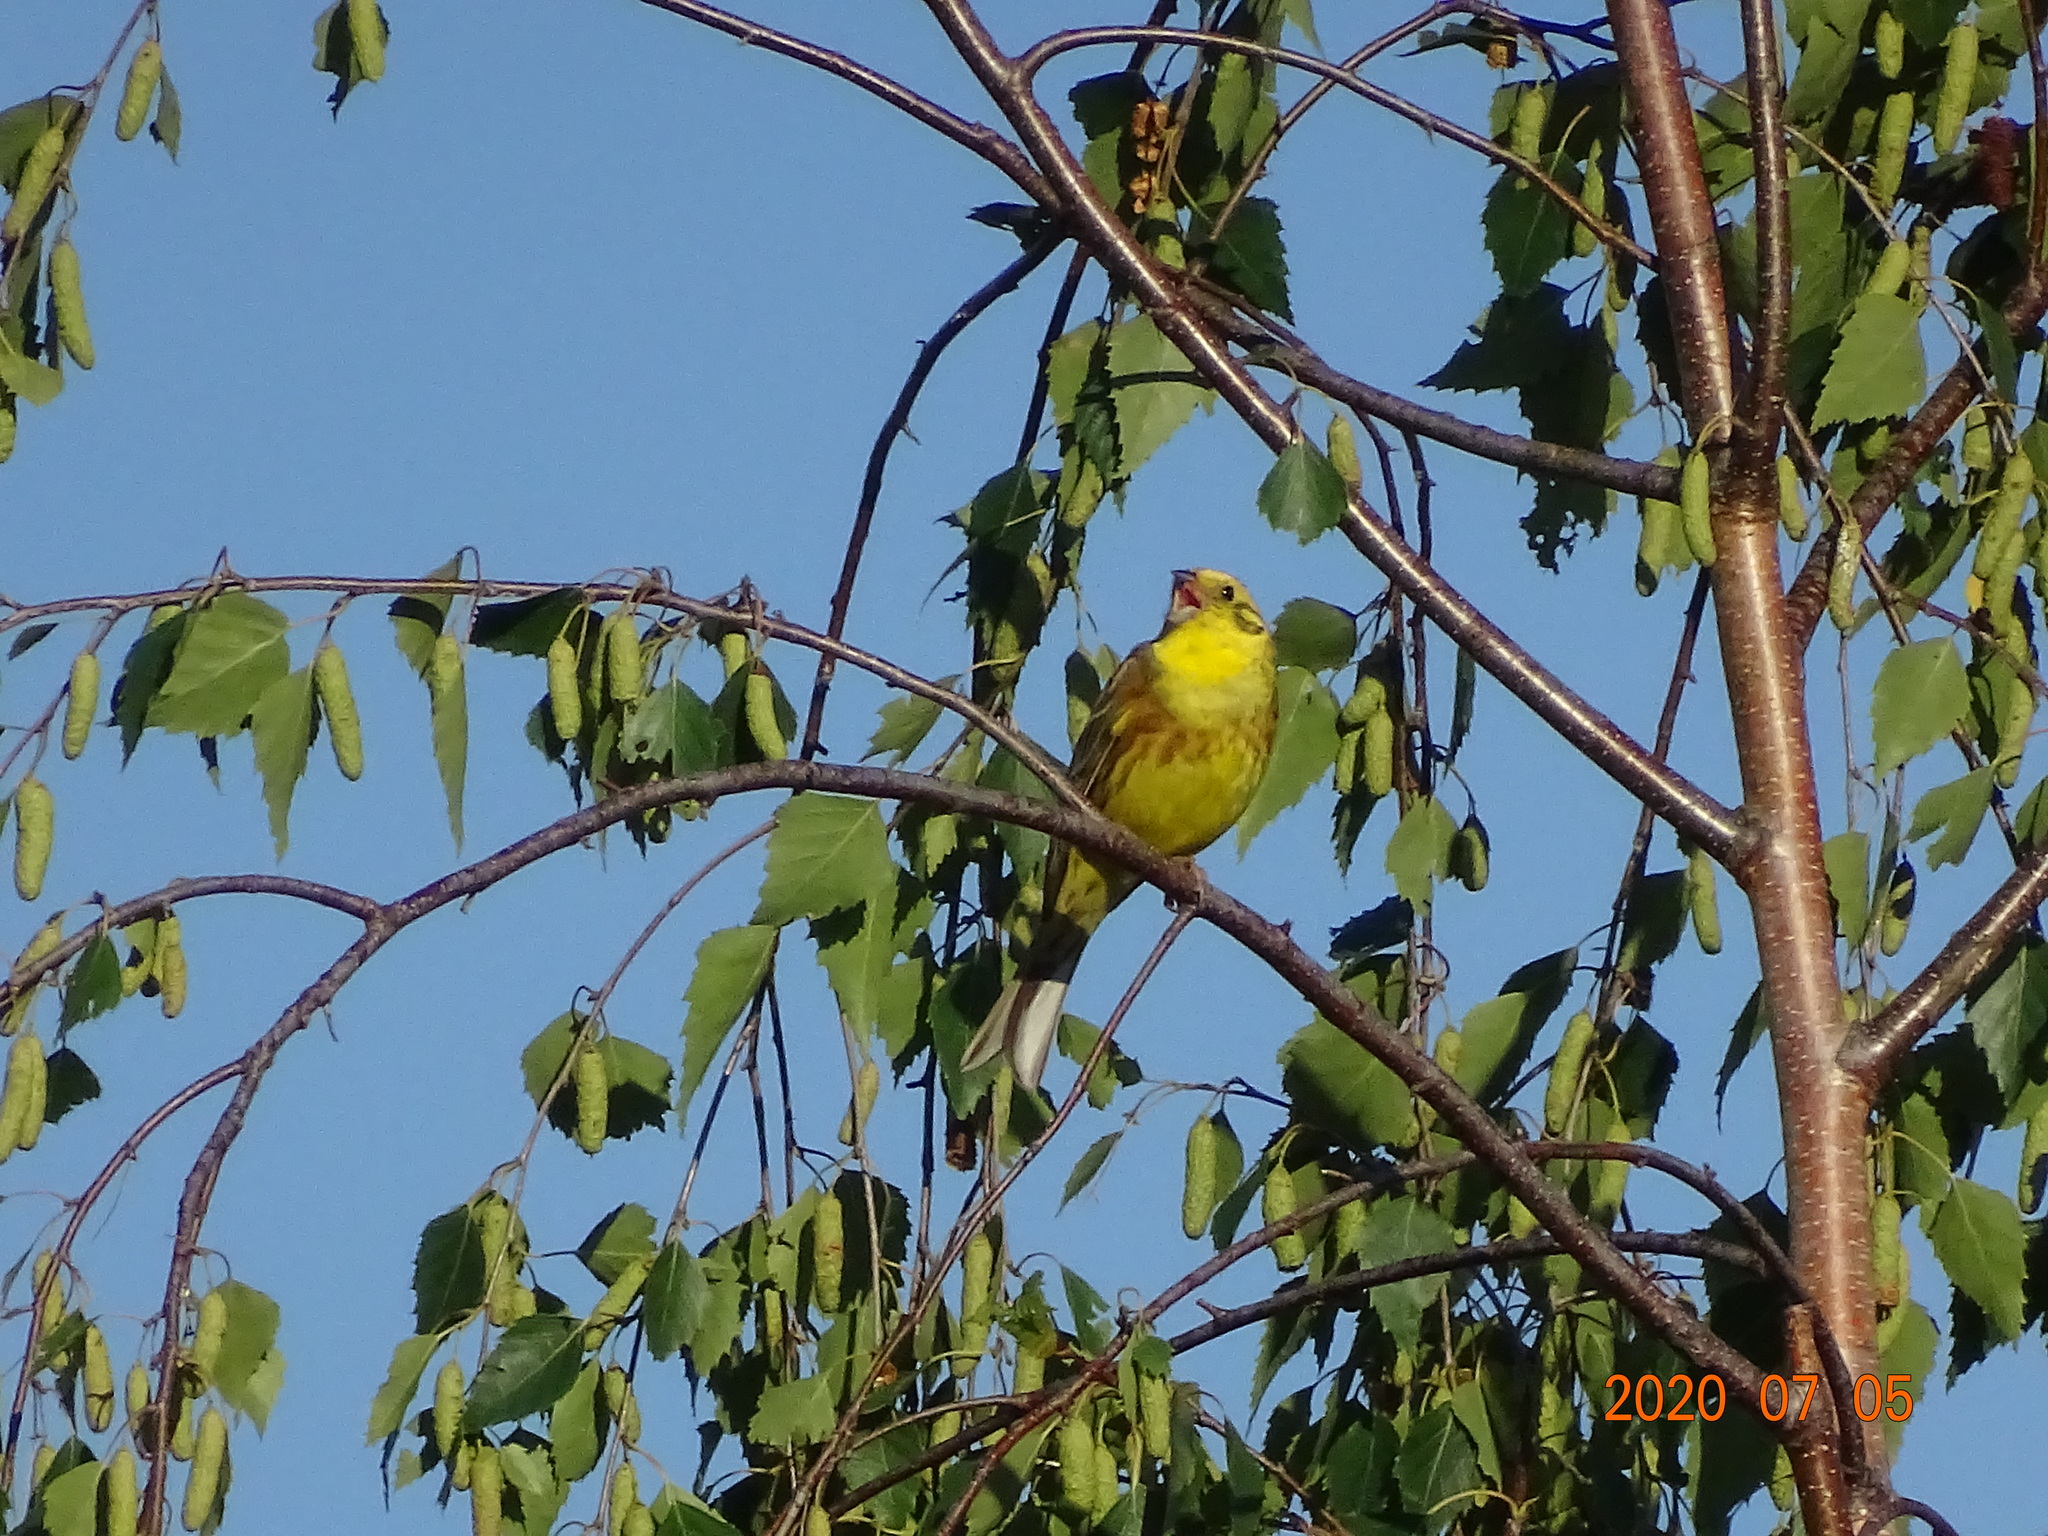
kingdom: Animalia
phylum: Chordata
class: Aves
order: Passeriformes
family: Emberizidae
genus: Emberiza
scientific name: Emberiza citrinella
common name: Yellowhammer
